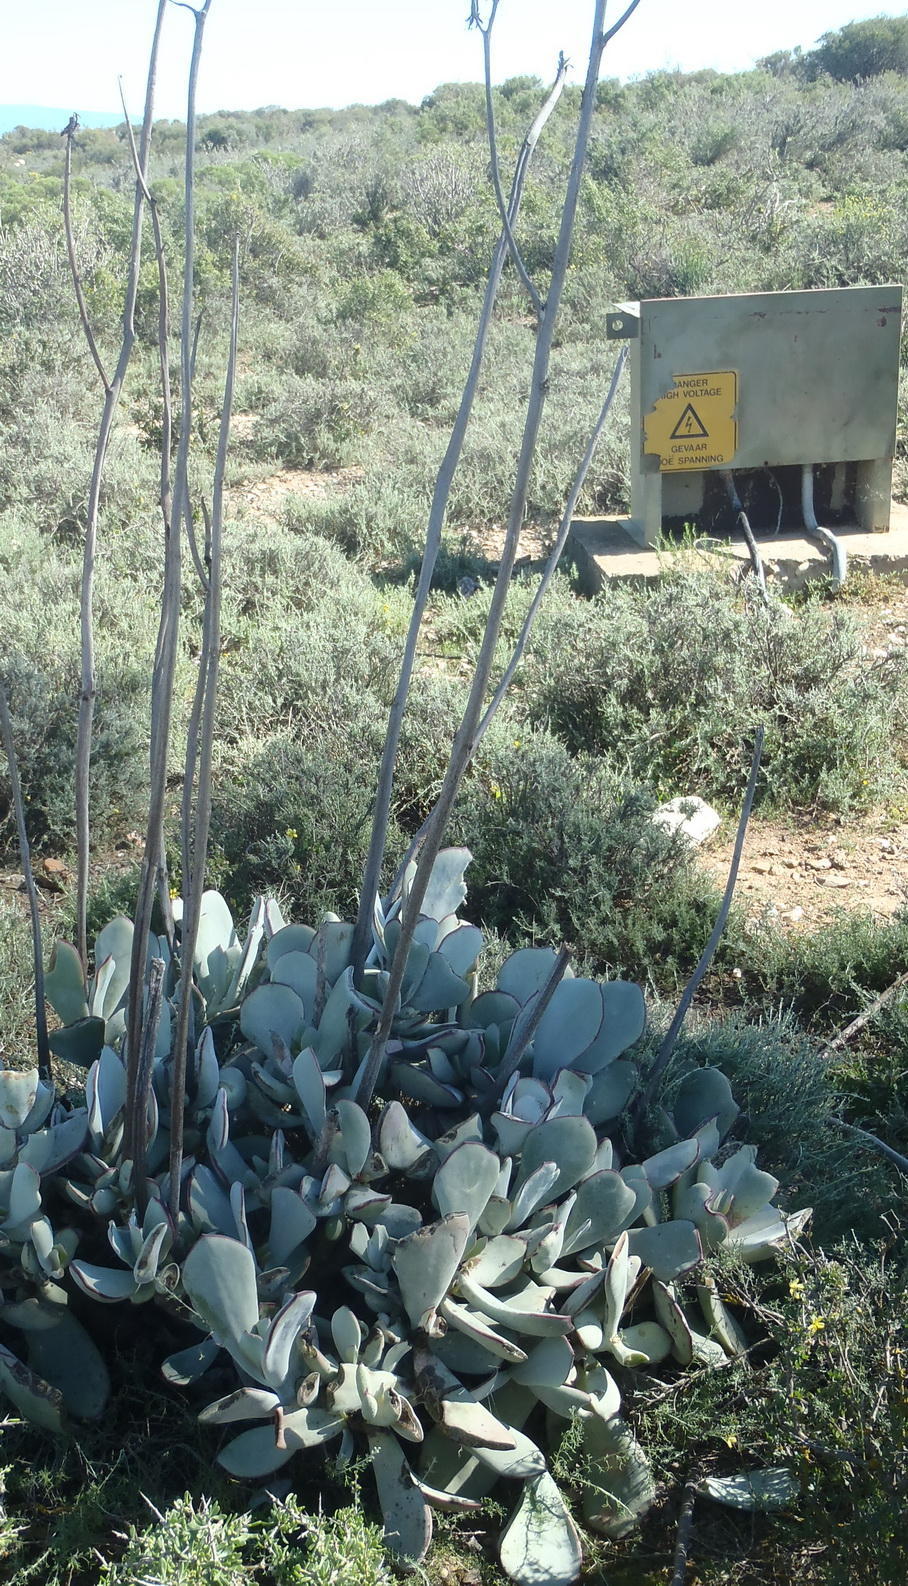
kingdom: Plantae
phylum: Tracheophyta
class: Magnoliopsida
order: Saxifragales
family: Crassulaceae
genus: Cotyledon
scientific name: Cotyledon orbiculata
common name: Pig's ear
